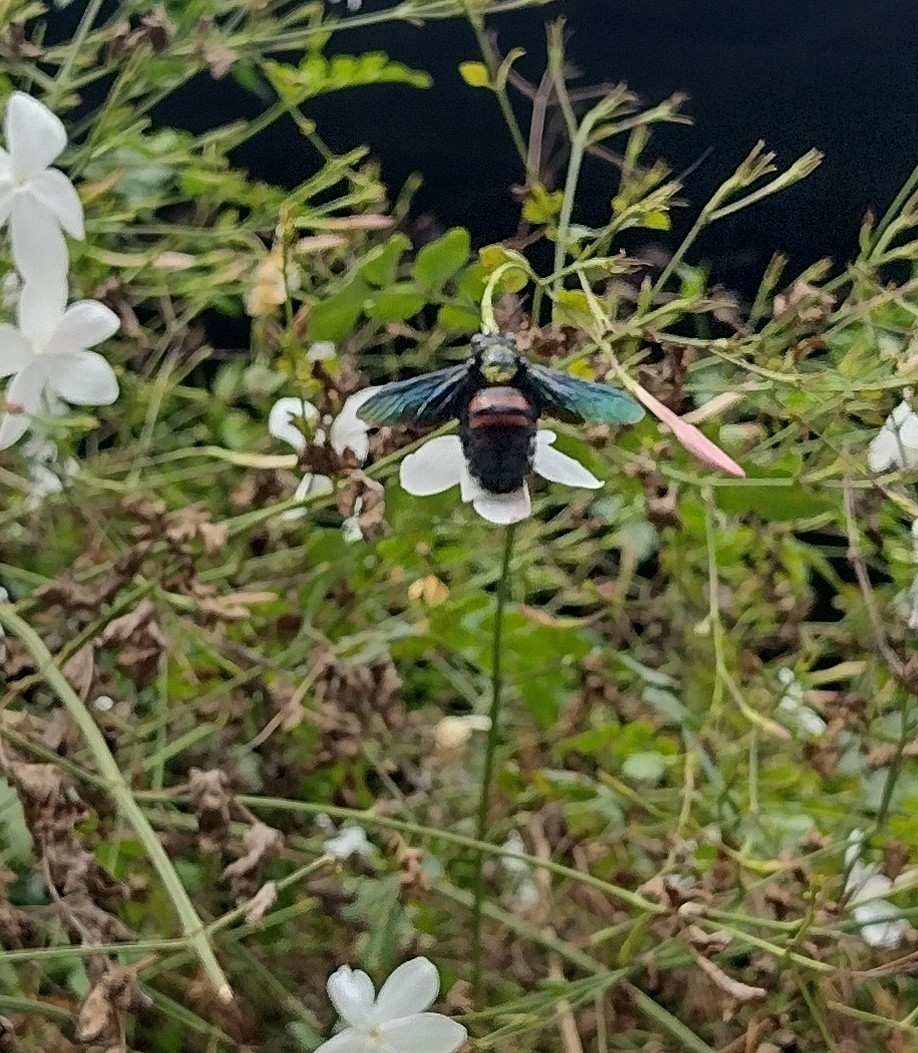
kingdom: Animalia
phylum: Arthropoda
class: Insecta
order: Hymenoptera
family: Apidae
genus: Xylocopa
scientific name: Xylocopa frontalis
